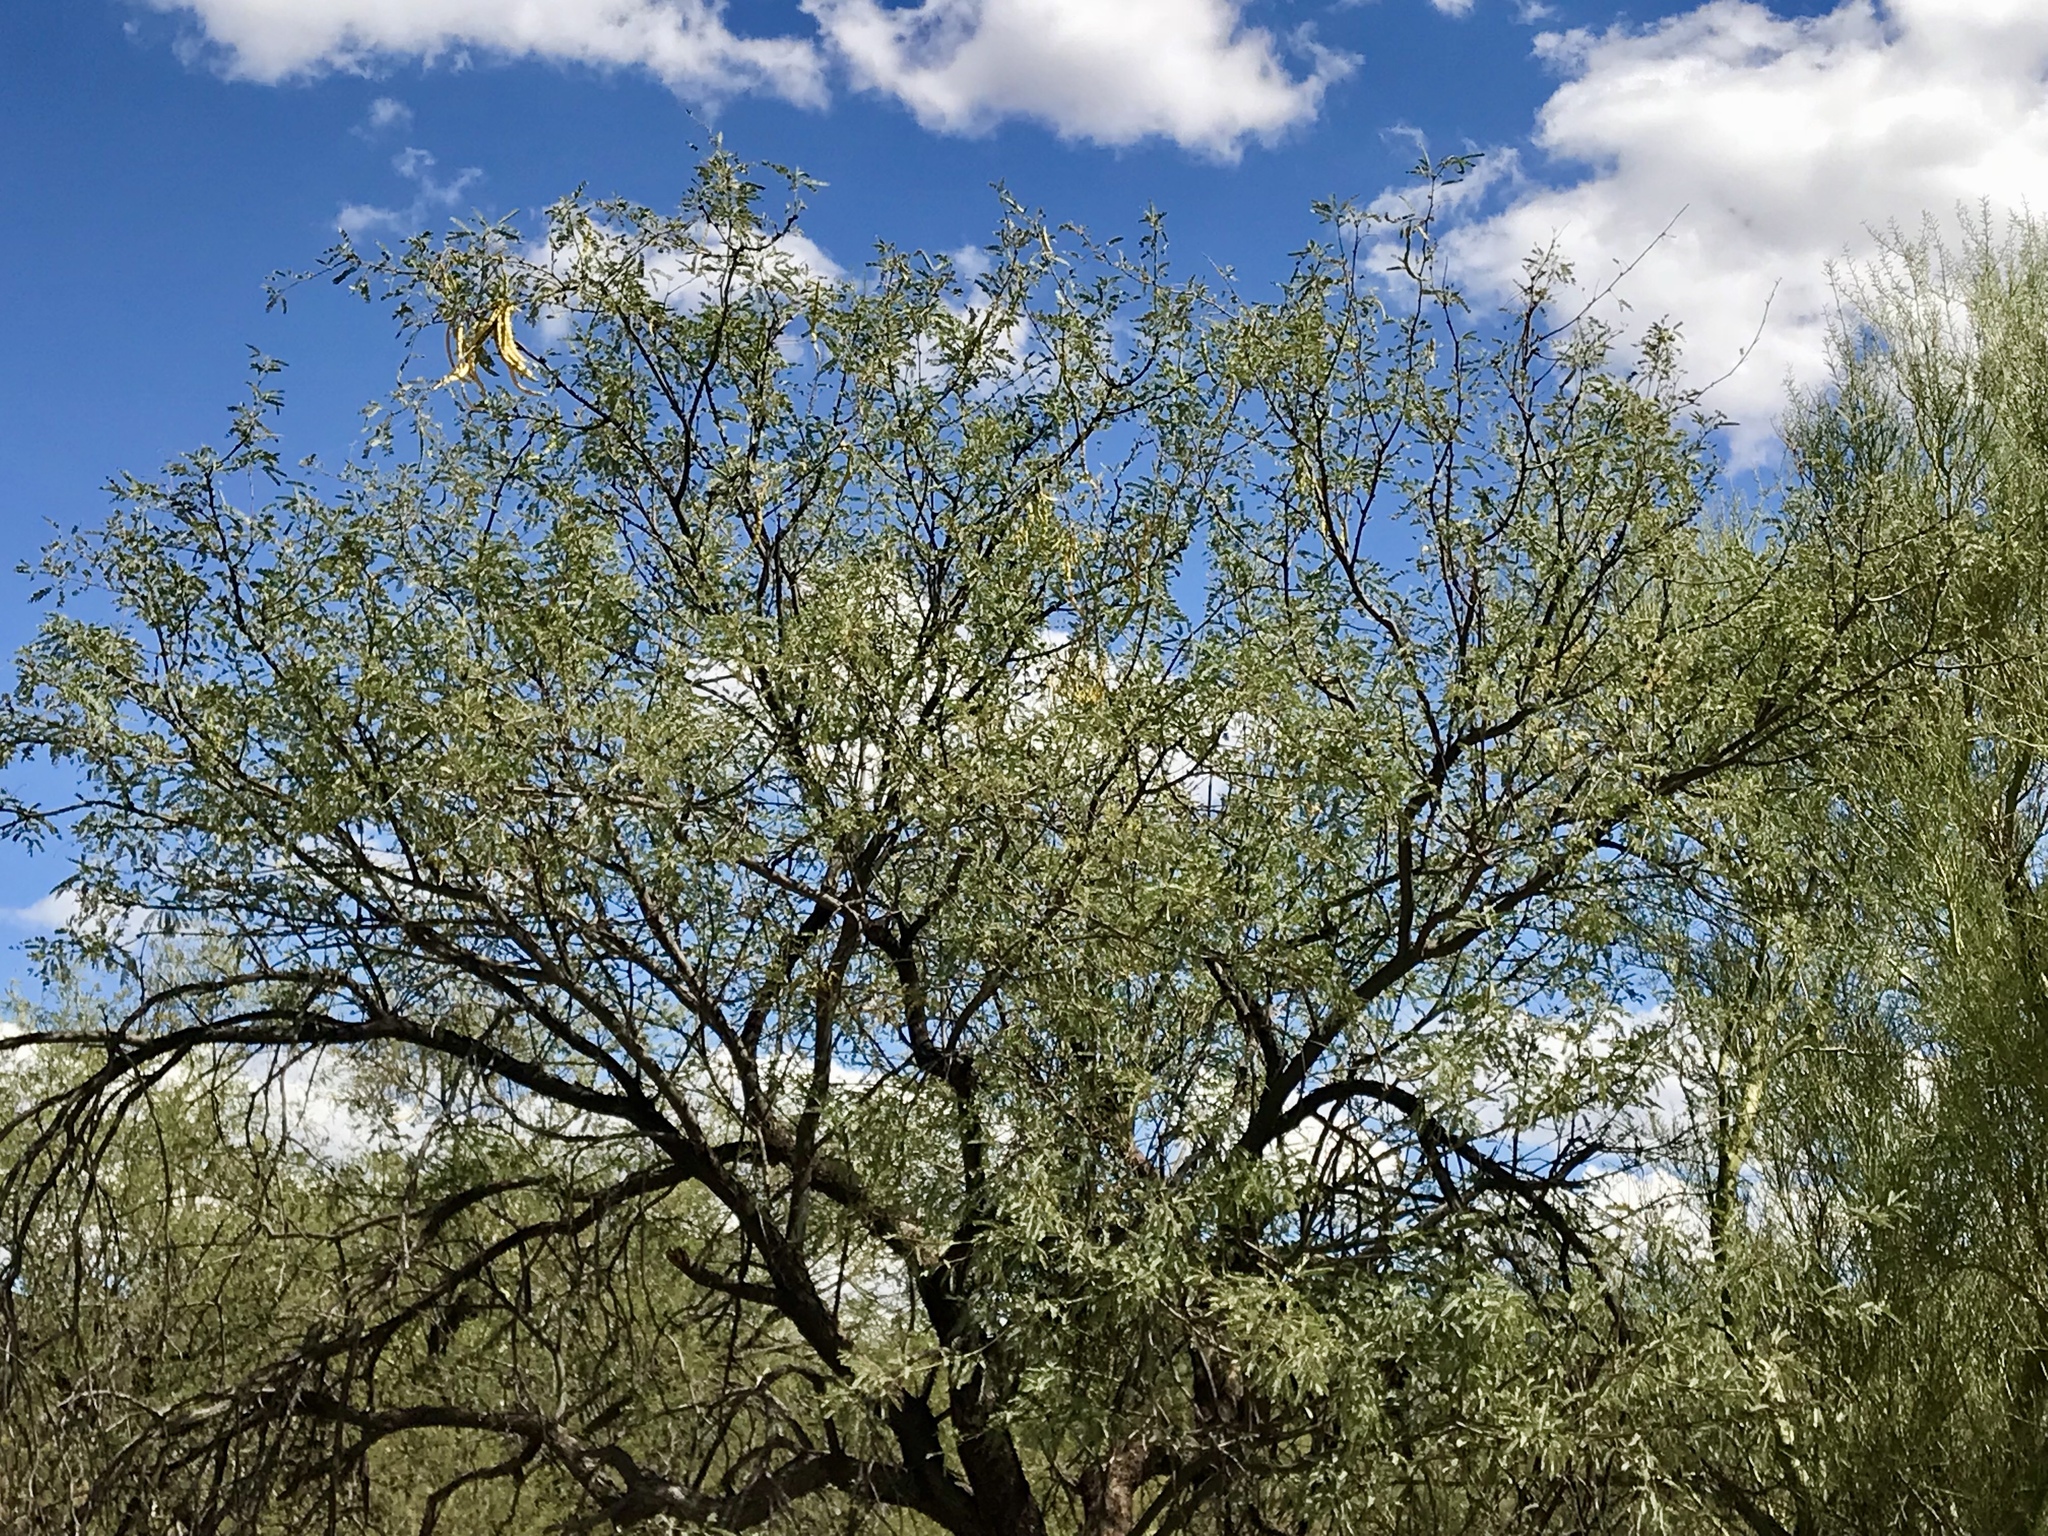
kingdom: Plantae
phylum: Tracheophyta
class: Magnoliopsida
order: Fabales
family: Fabaceae
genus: Prosopis
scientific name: Prosopis velutina
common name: Velvet mesquite
